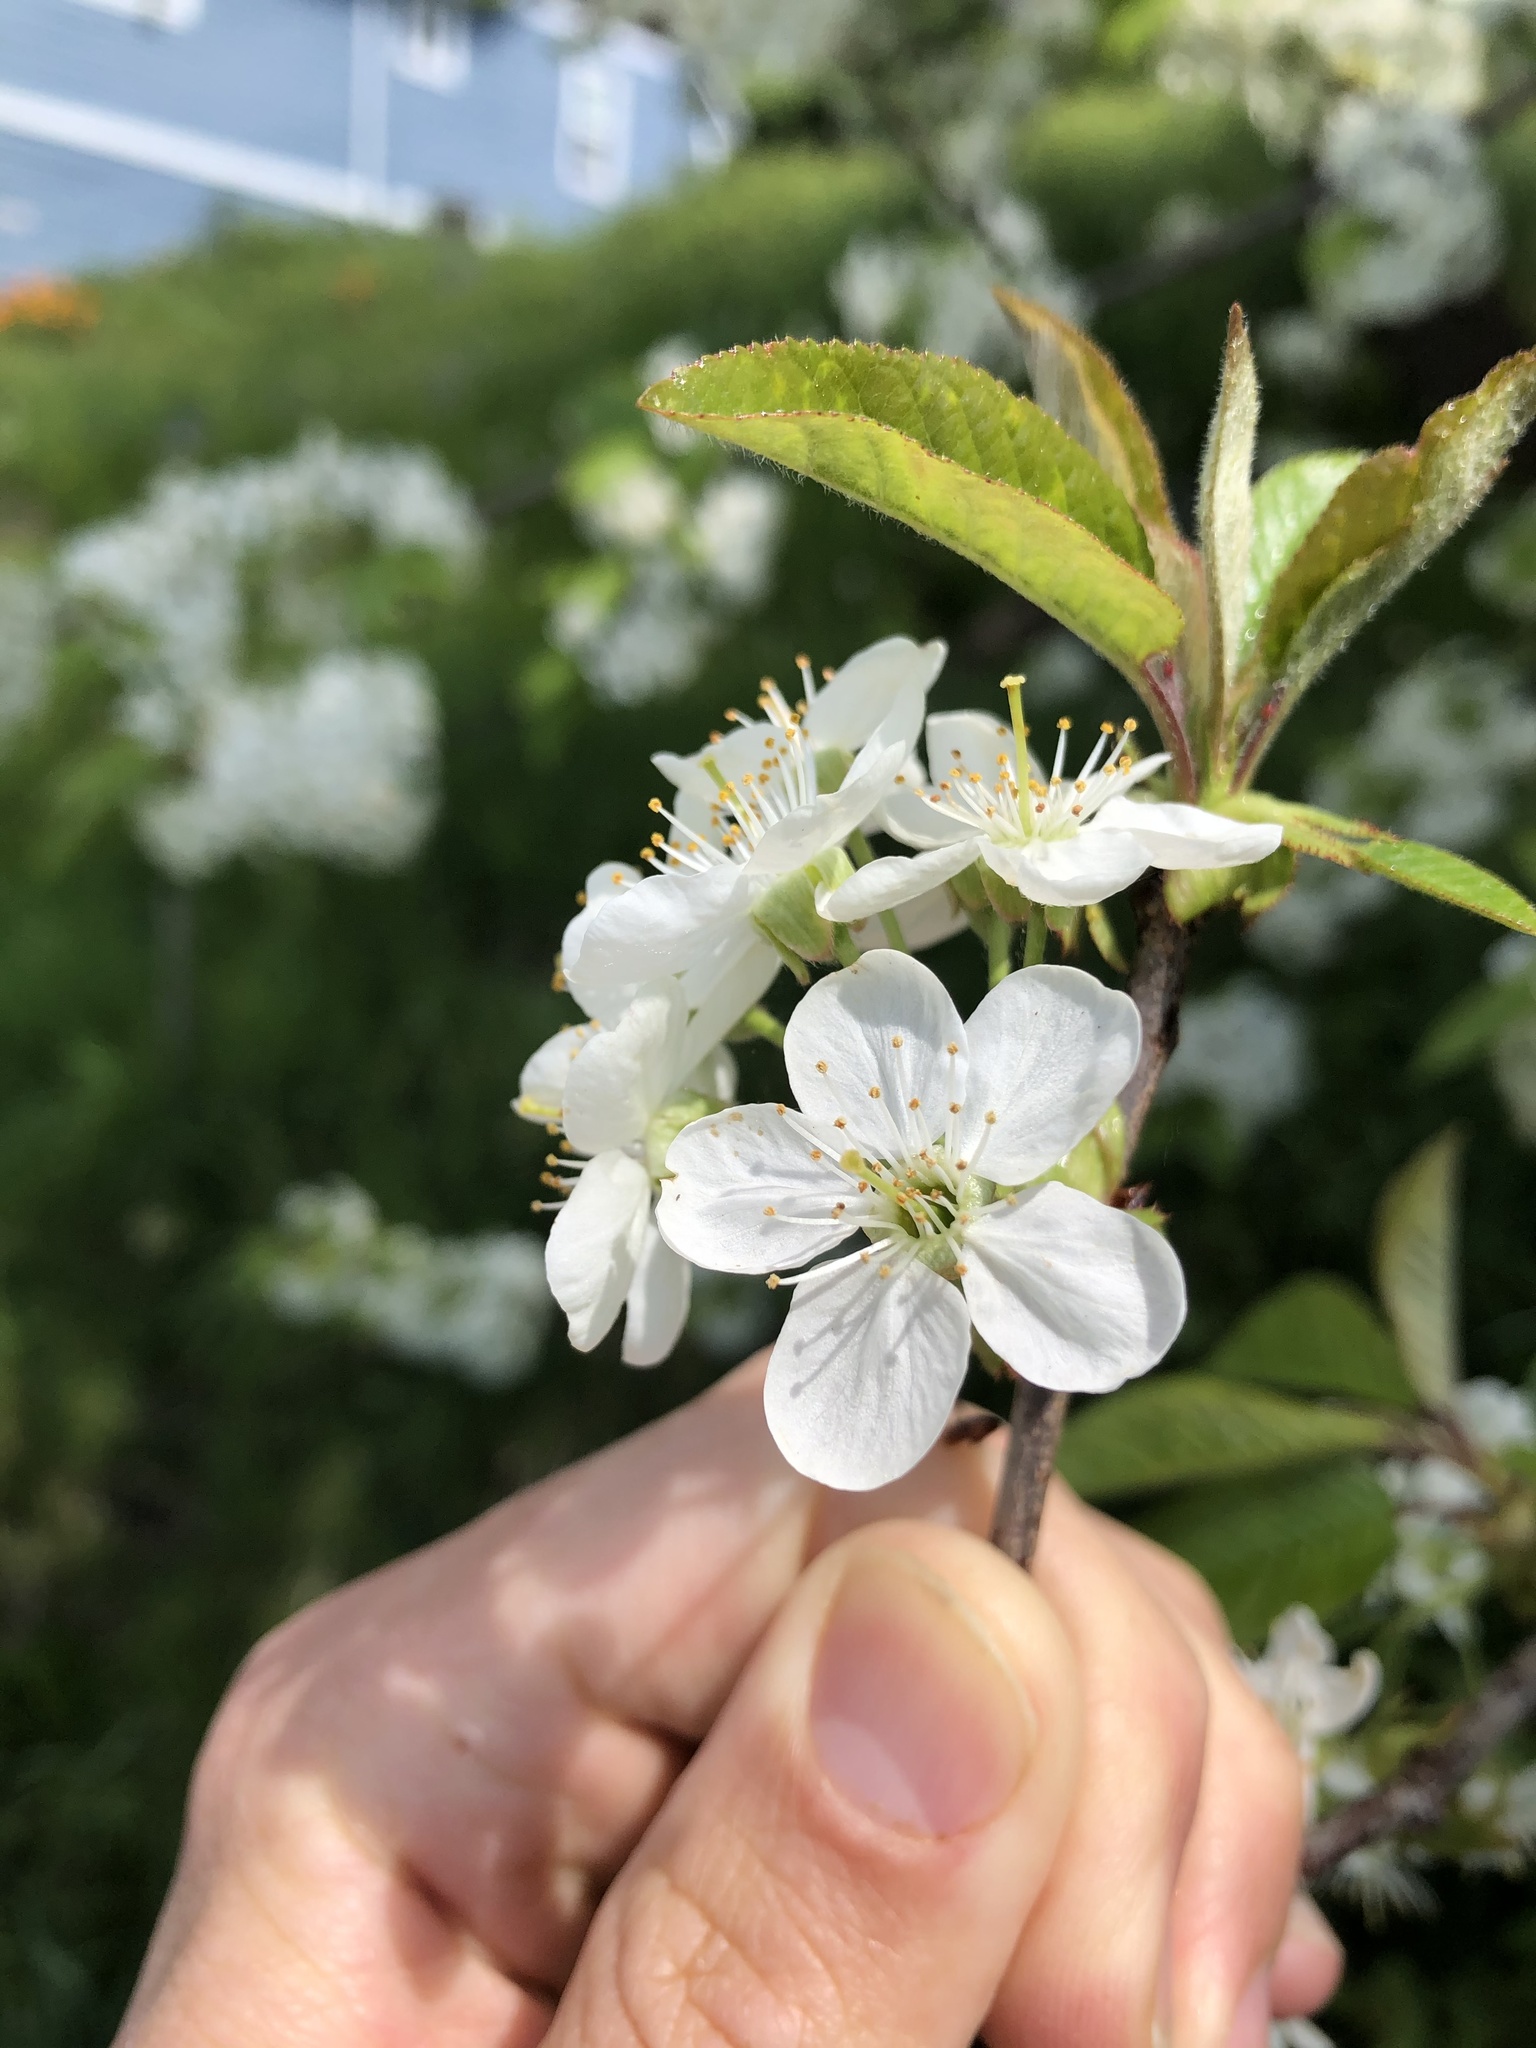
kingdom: Plantae
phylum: Tracheophyta
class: Magnoliopsida
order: Rosales
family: Rosaceae
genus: Prunus
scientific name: Prunus pugetensis
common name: Chokecherry
